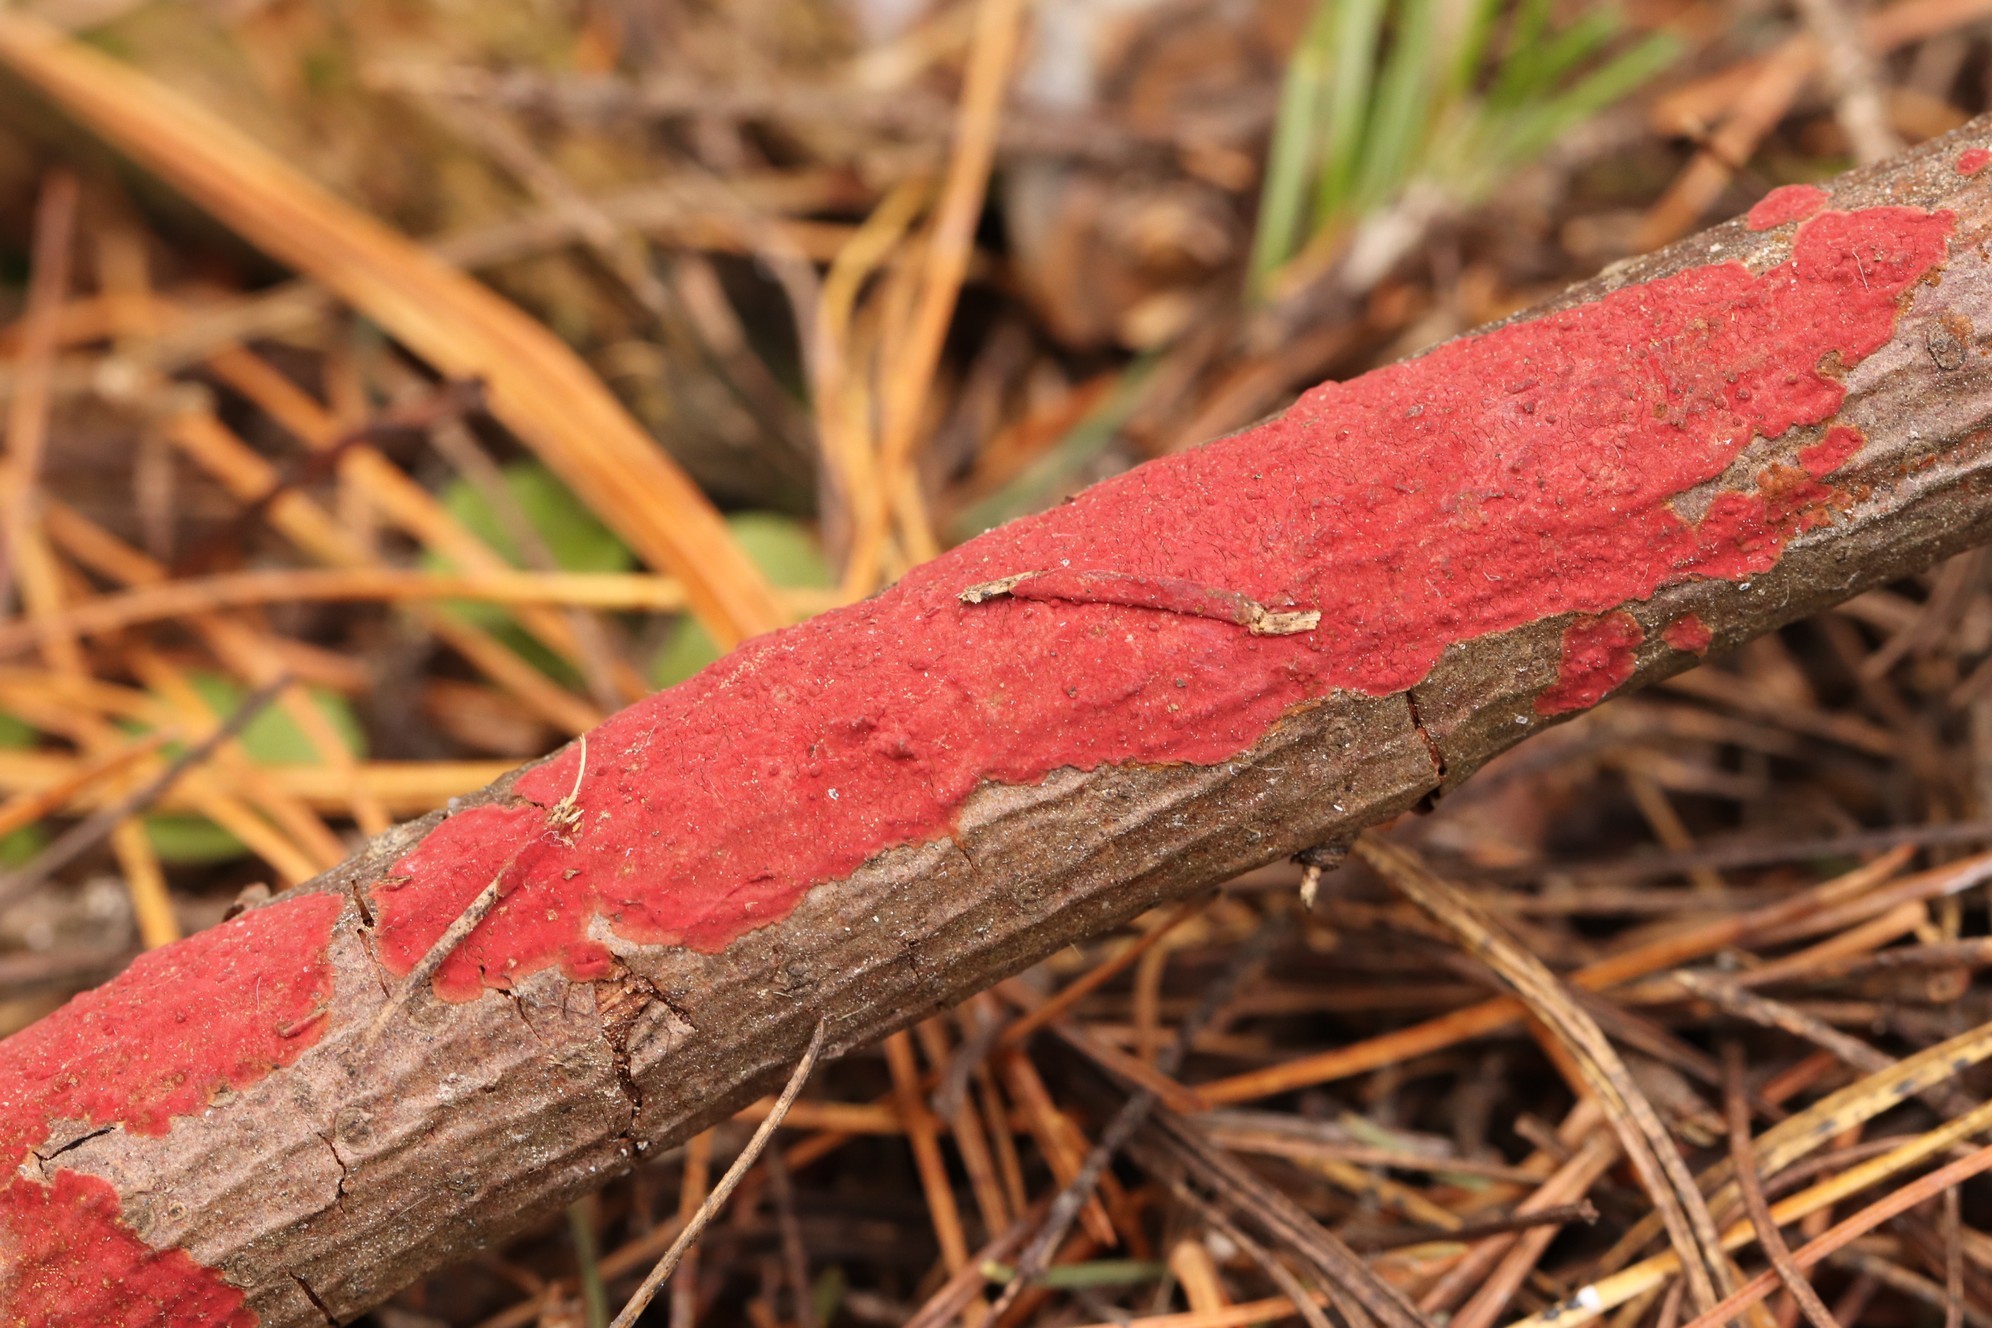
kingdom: Fungi
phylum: Basidiomycota
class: Agaricomycetes
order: Hymenochaetales
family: Hymenochaetaceae
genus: Hymenochaete
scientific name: Hymenochaete cruenta
